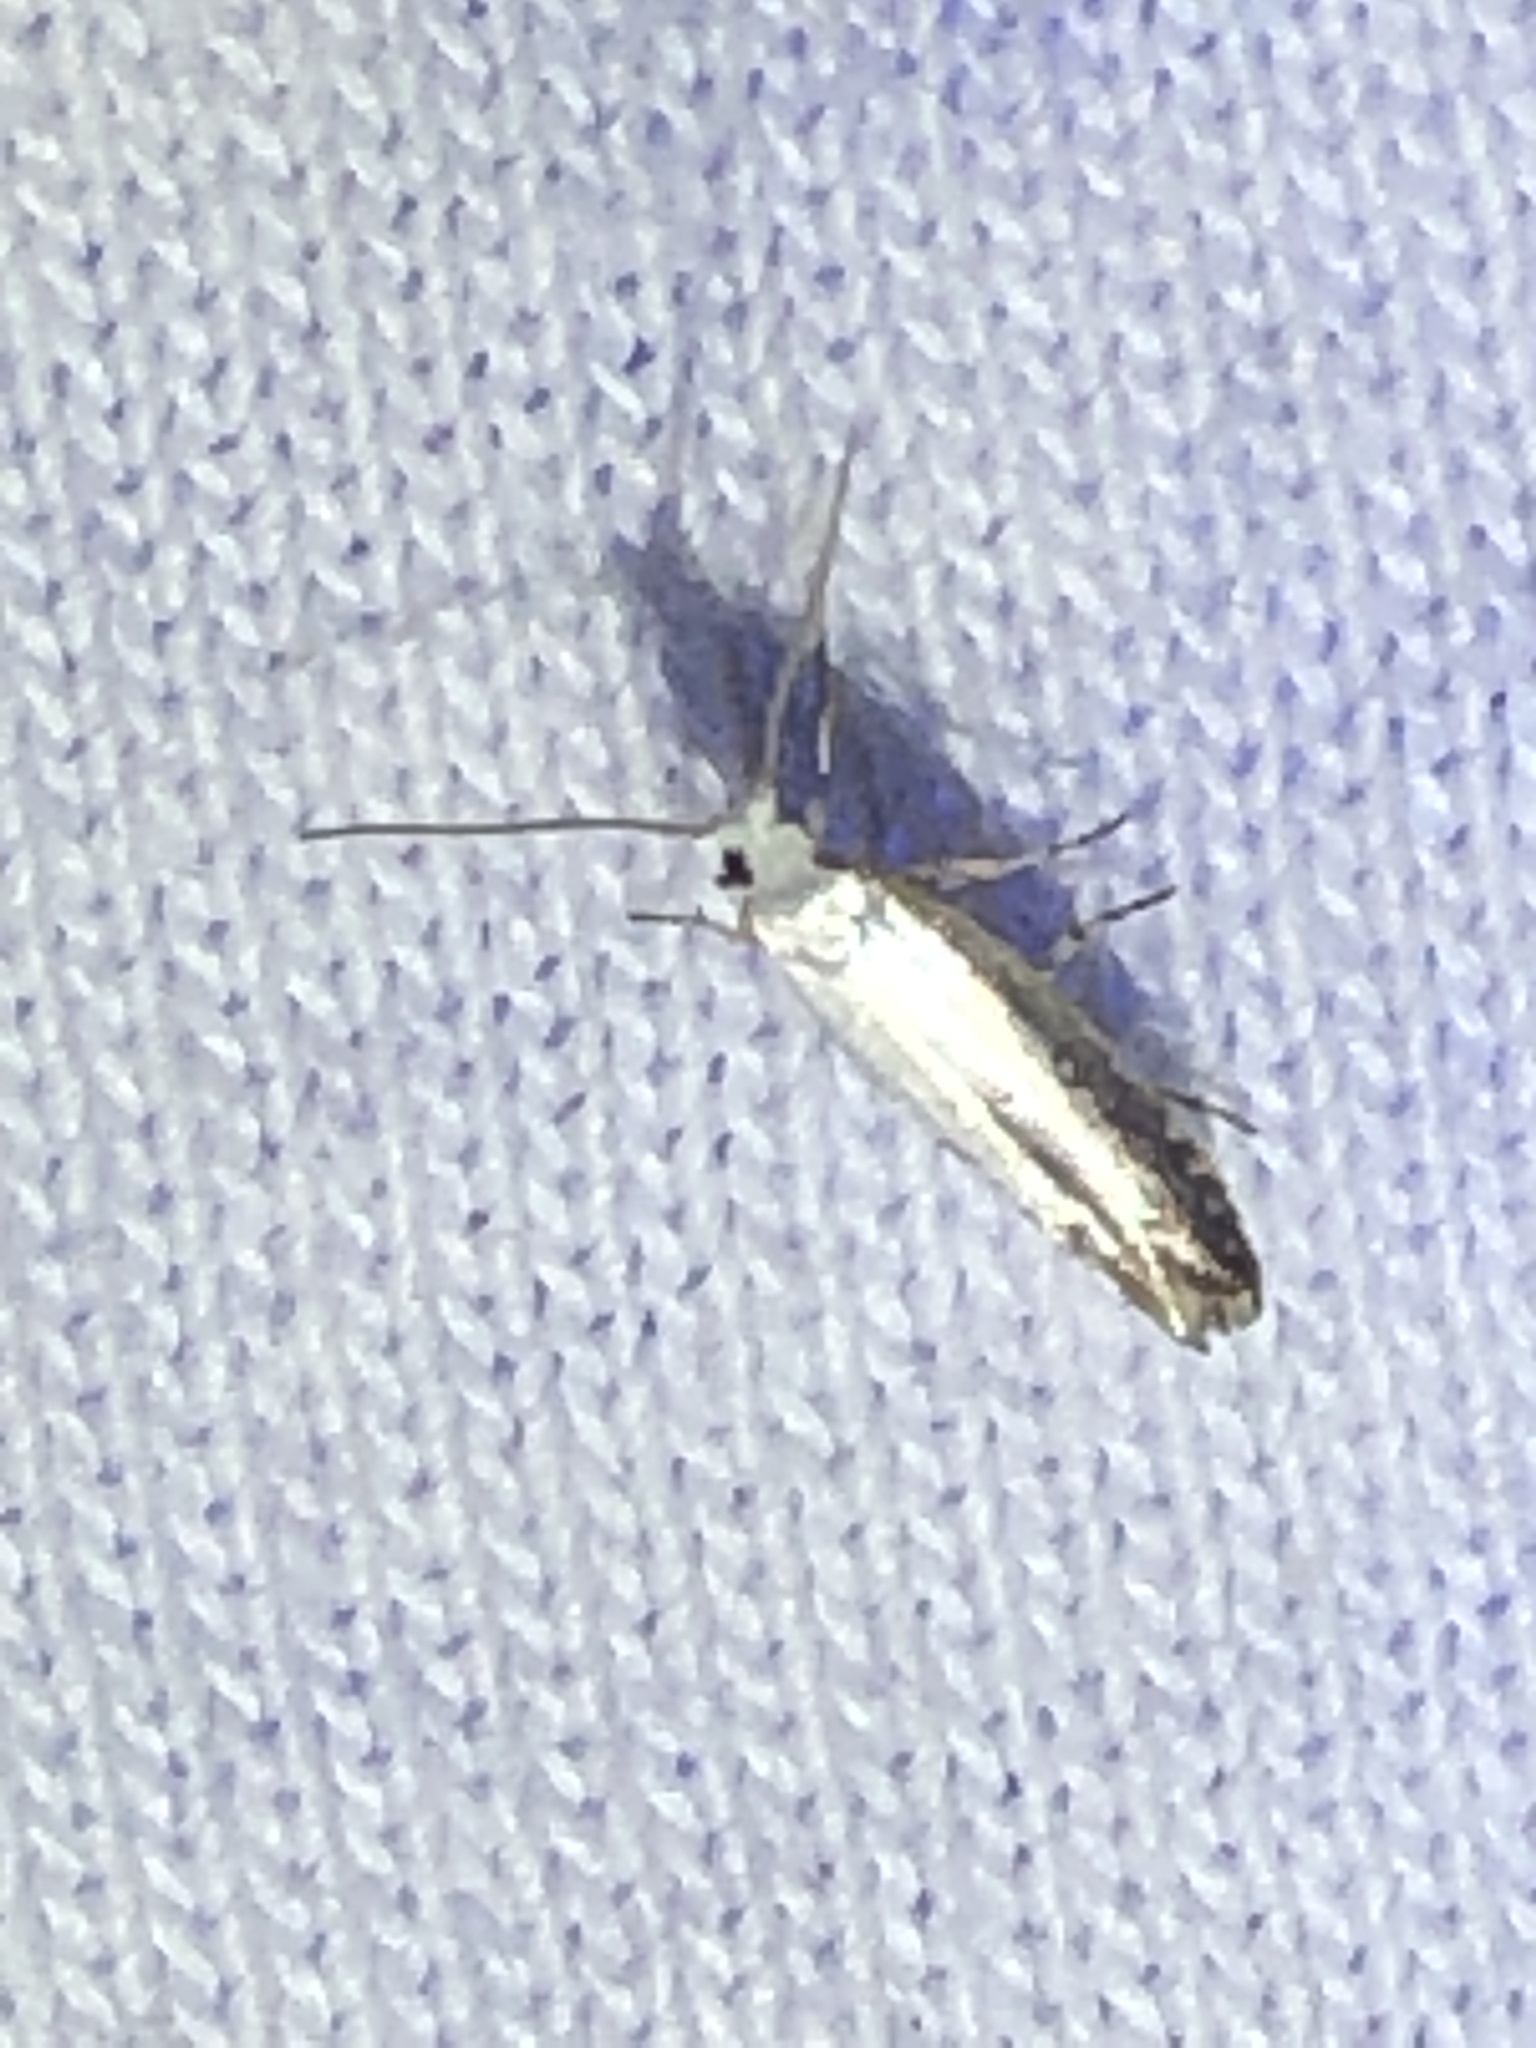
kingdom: Animalia
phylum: Arthropoda
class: Insecta
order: Lepidoptera
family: Argyresthiidae
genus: Argyresthia
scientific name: Argyresthia subreticulata
